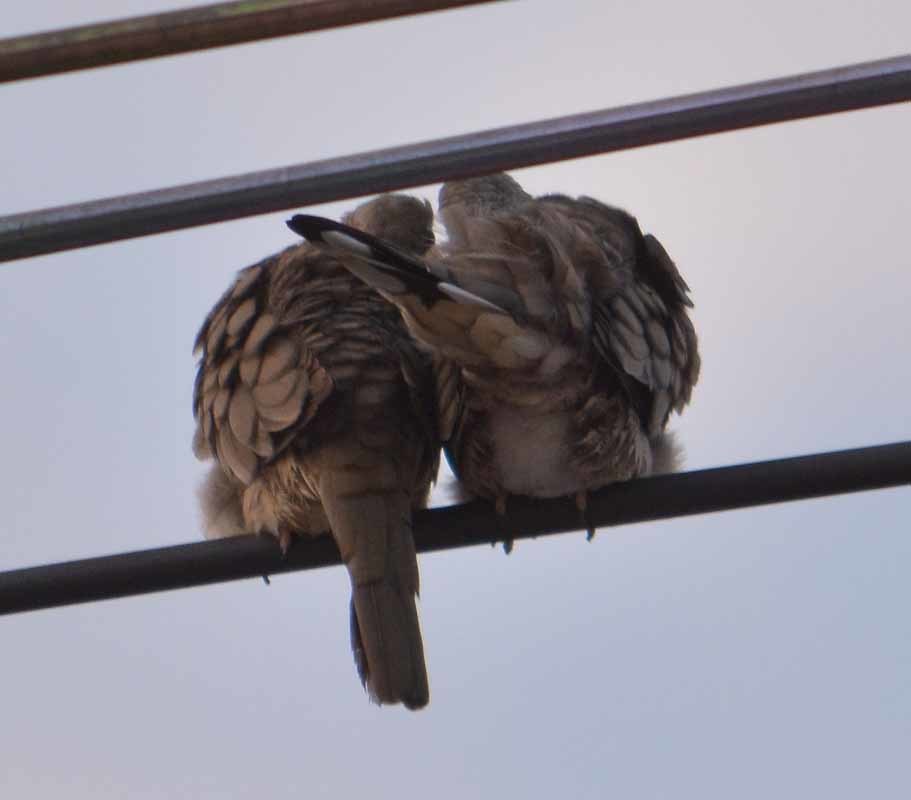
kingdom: Animalia
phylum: Chordata
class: Aves
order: Columbiformes
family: Columbidae
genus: Columbina
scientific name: Columbina inca
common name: Inca dove
